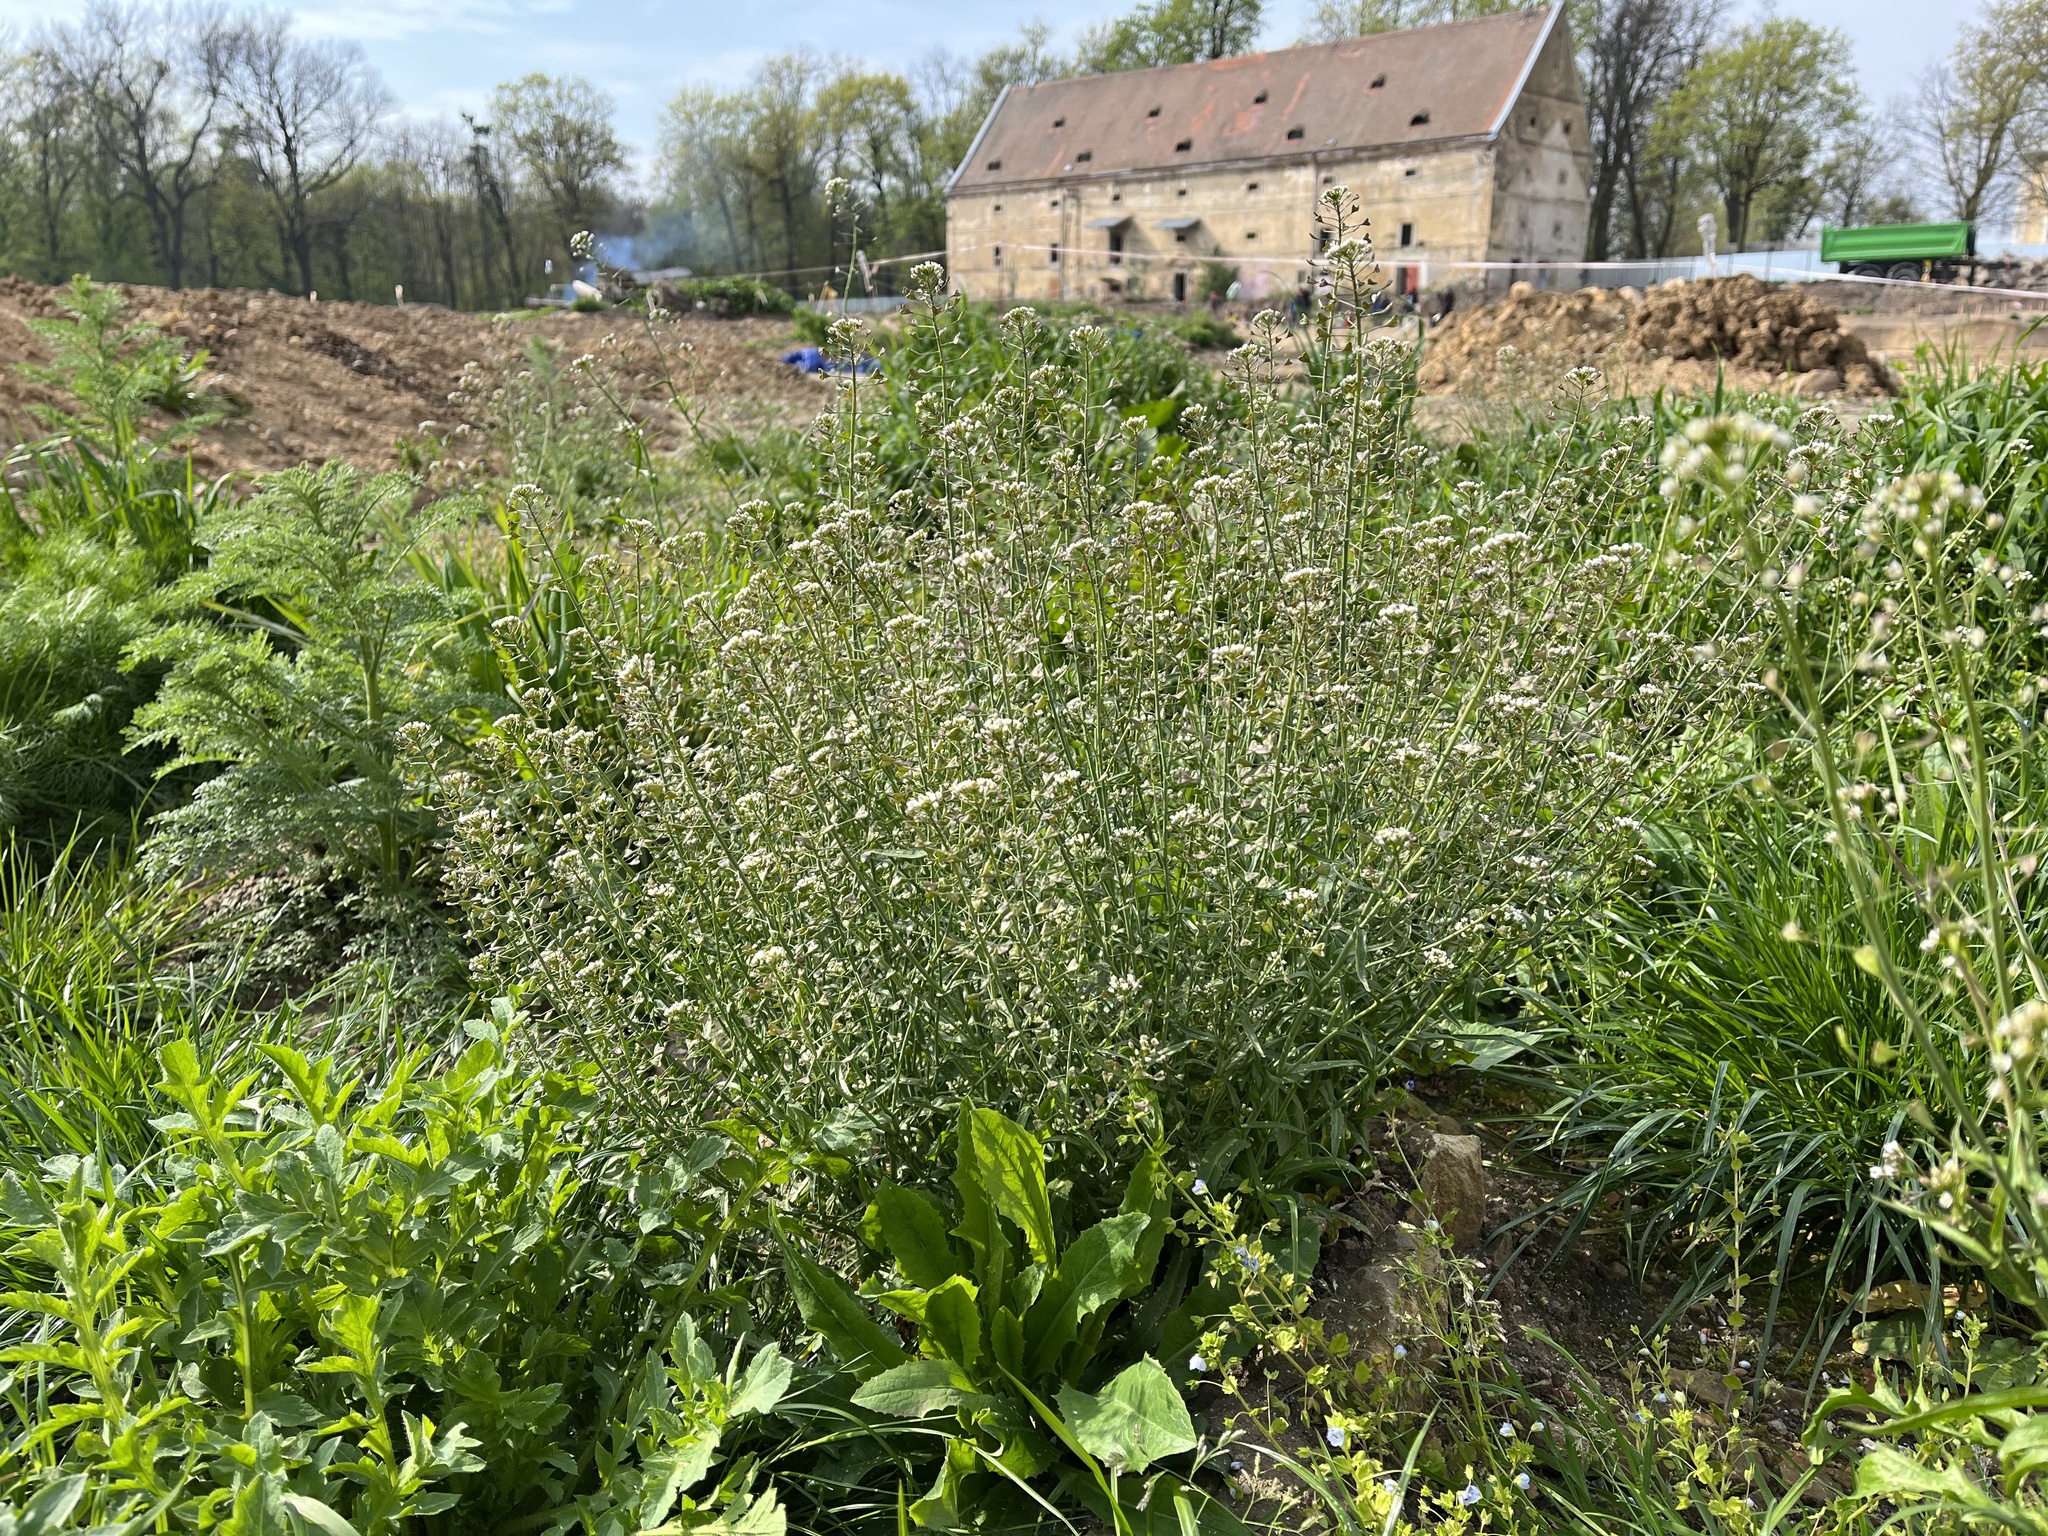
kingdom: Plantae
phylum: Tracheophyta
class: Magnoliopsida
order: Brassicales
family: Brassicaceae
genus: Capsella
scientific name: Capsella bursa-pastoris
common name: Shepherd's purse
